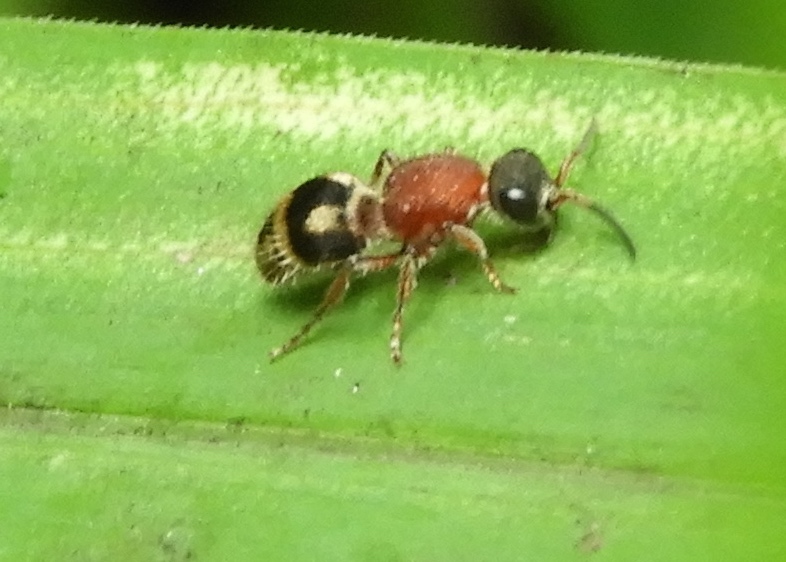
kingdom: Animalia
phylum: Arthropoda
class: Insecta
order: Hymenoptera
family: Mutillidae
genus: Timulla
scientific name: Timulla
